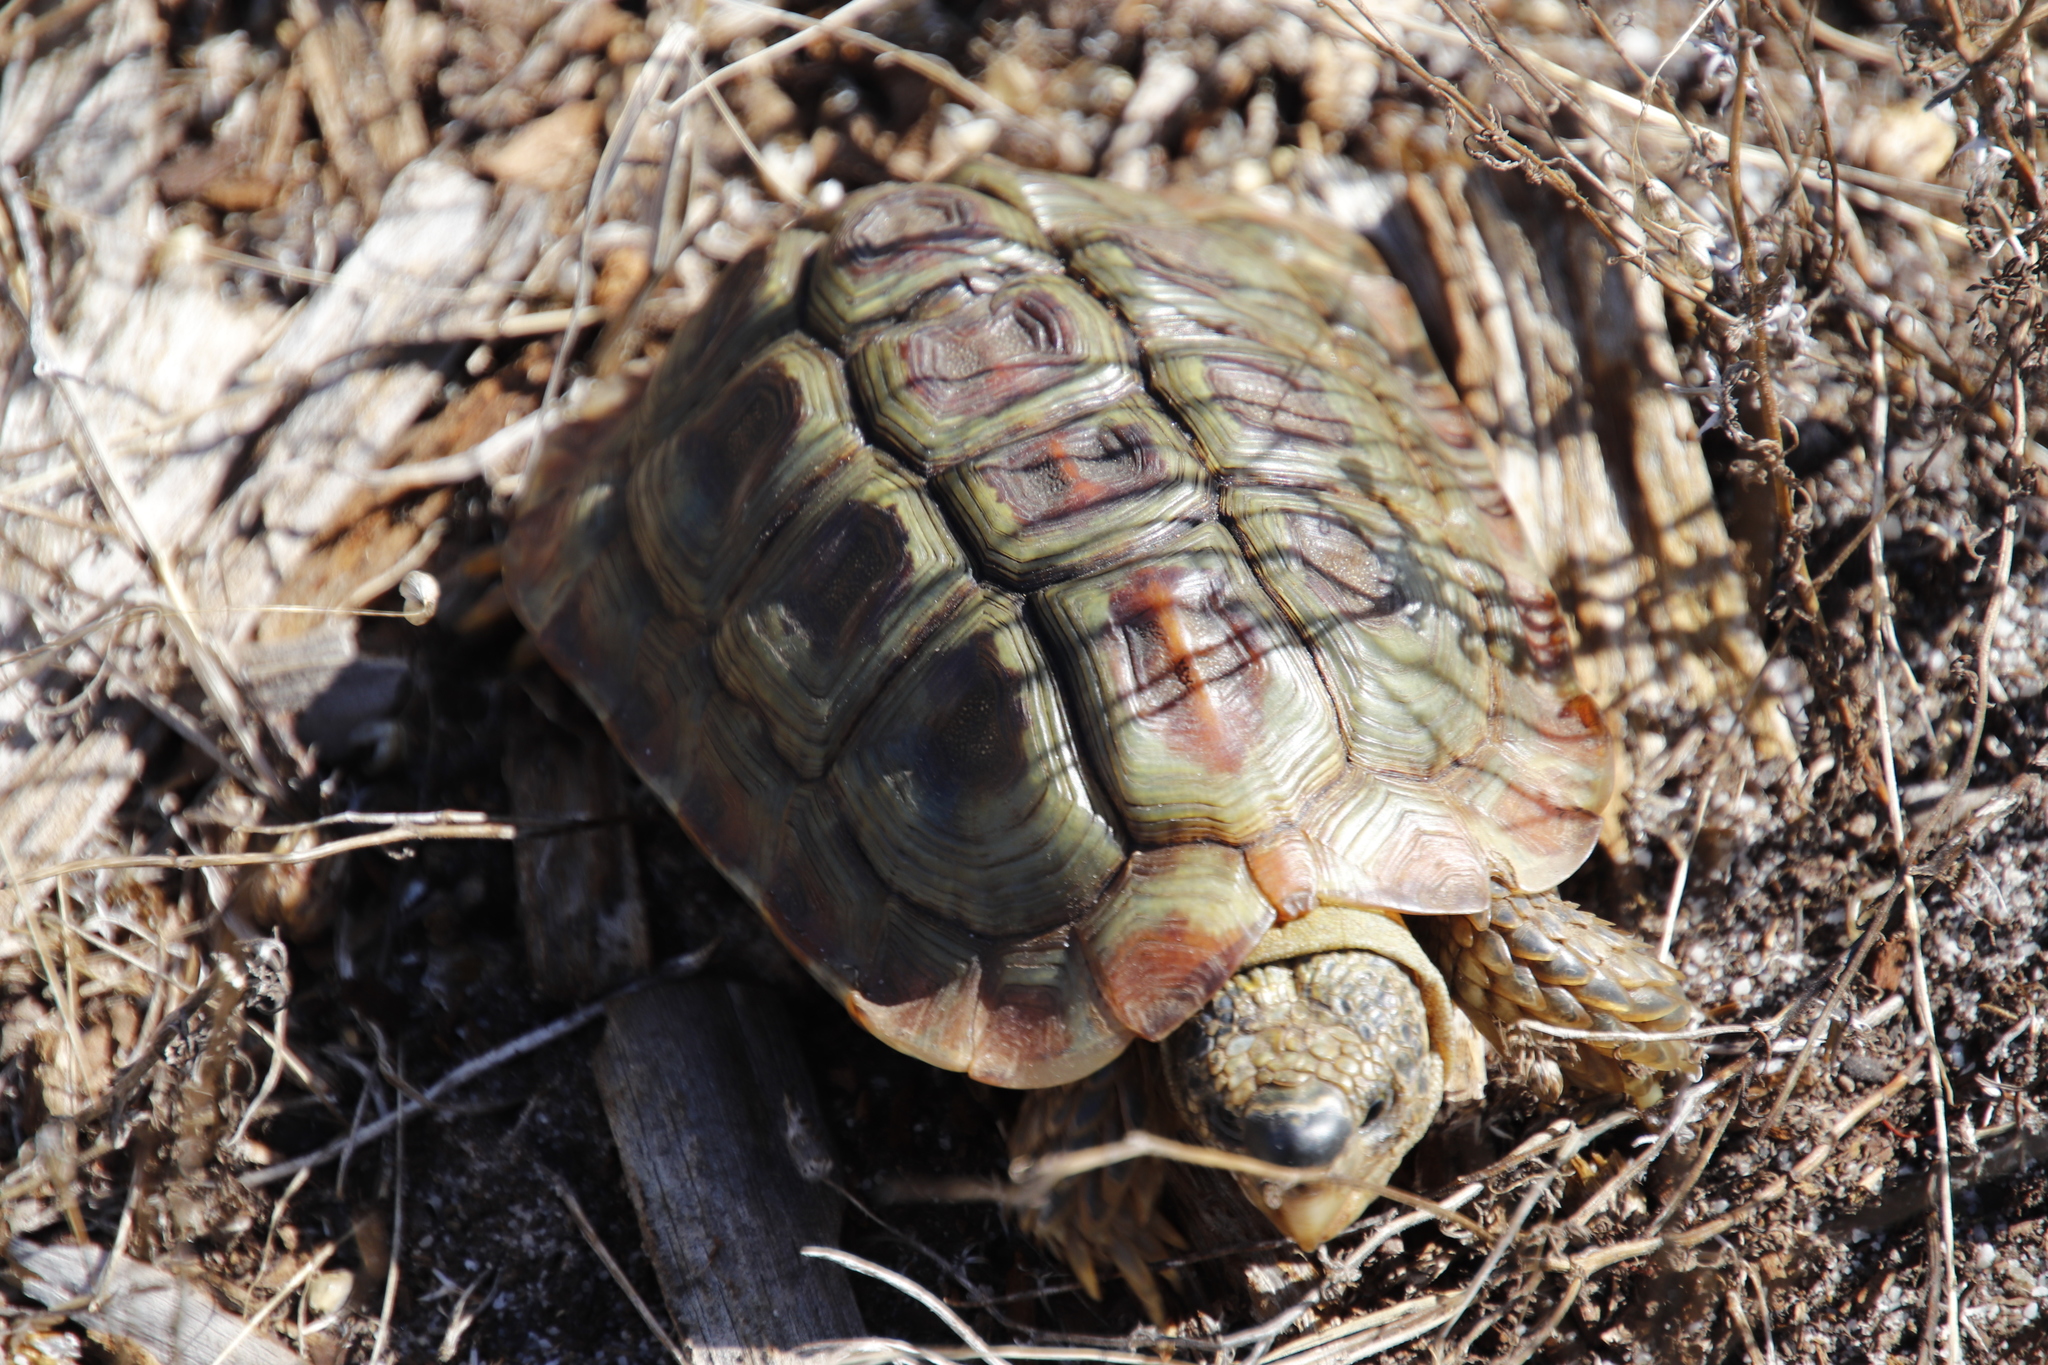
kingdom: Animalia
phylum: Chordata
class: Testudines
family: Testudinidae
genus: Homopus
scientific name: Homopus areolatus
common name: Parrot-beaked tortoise
